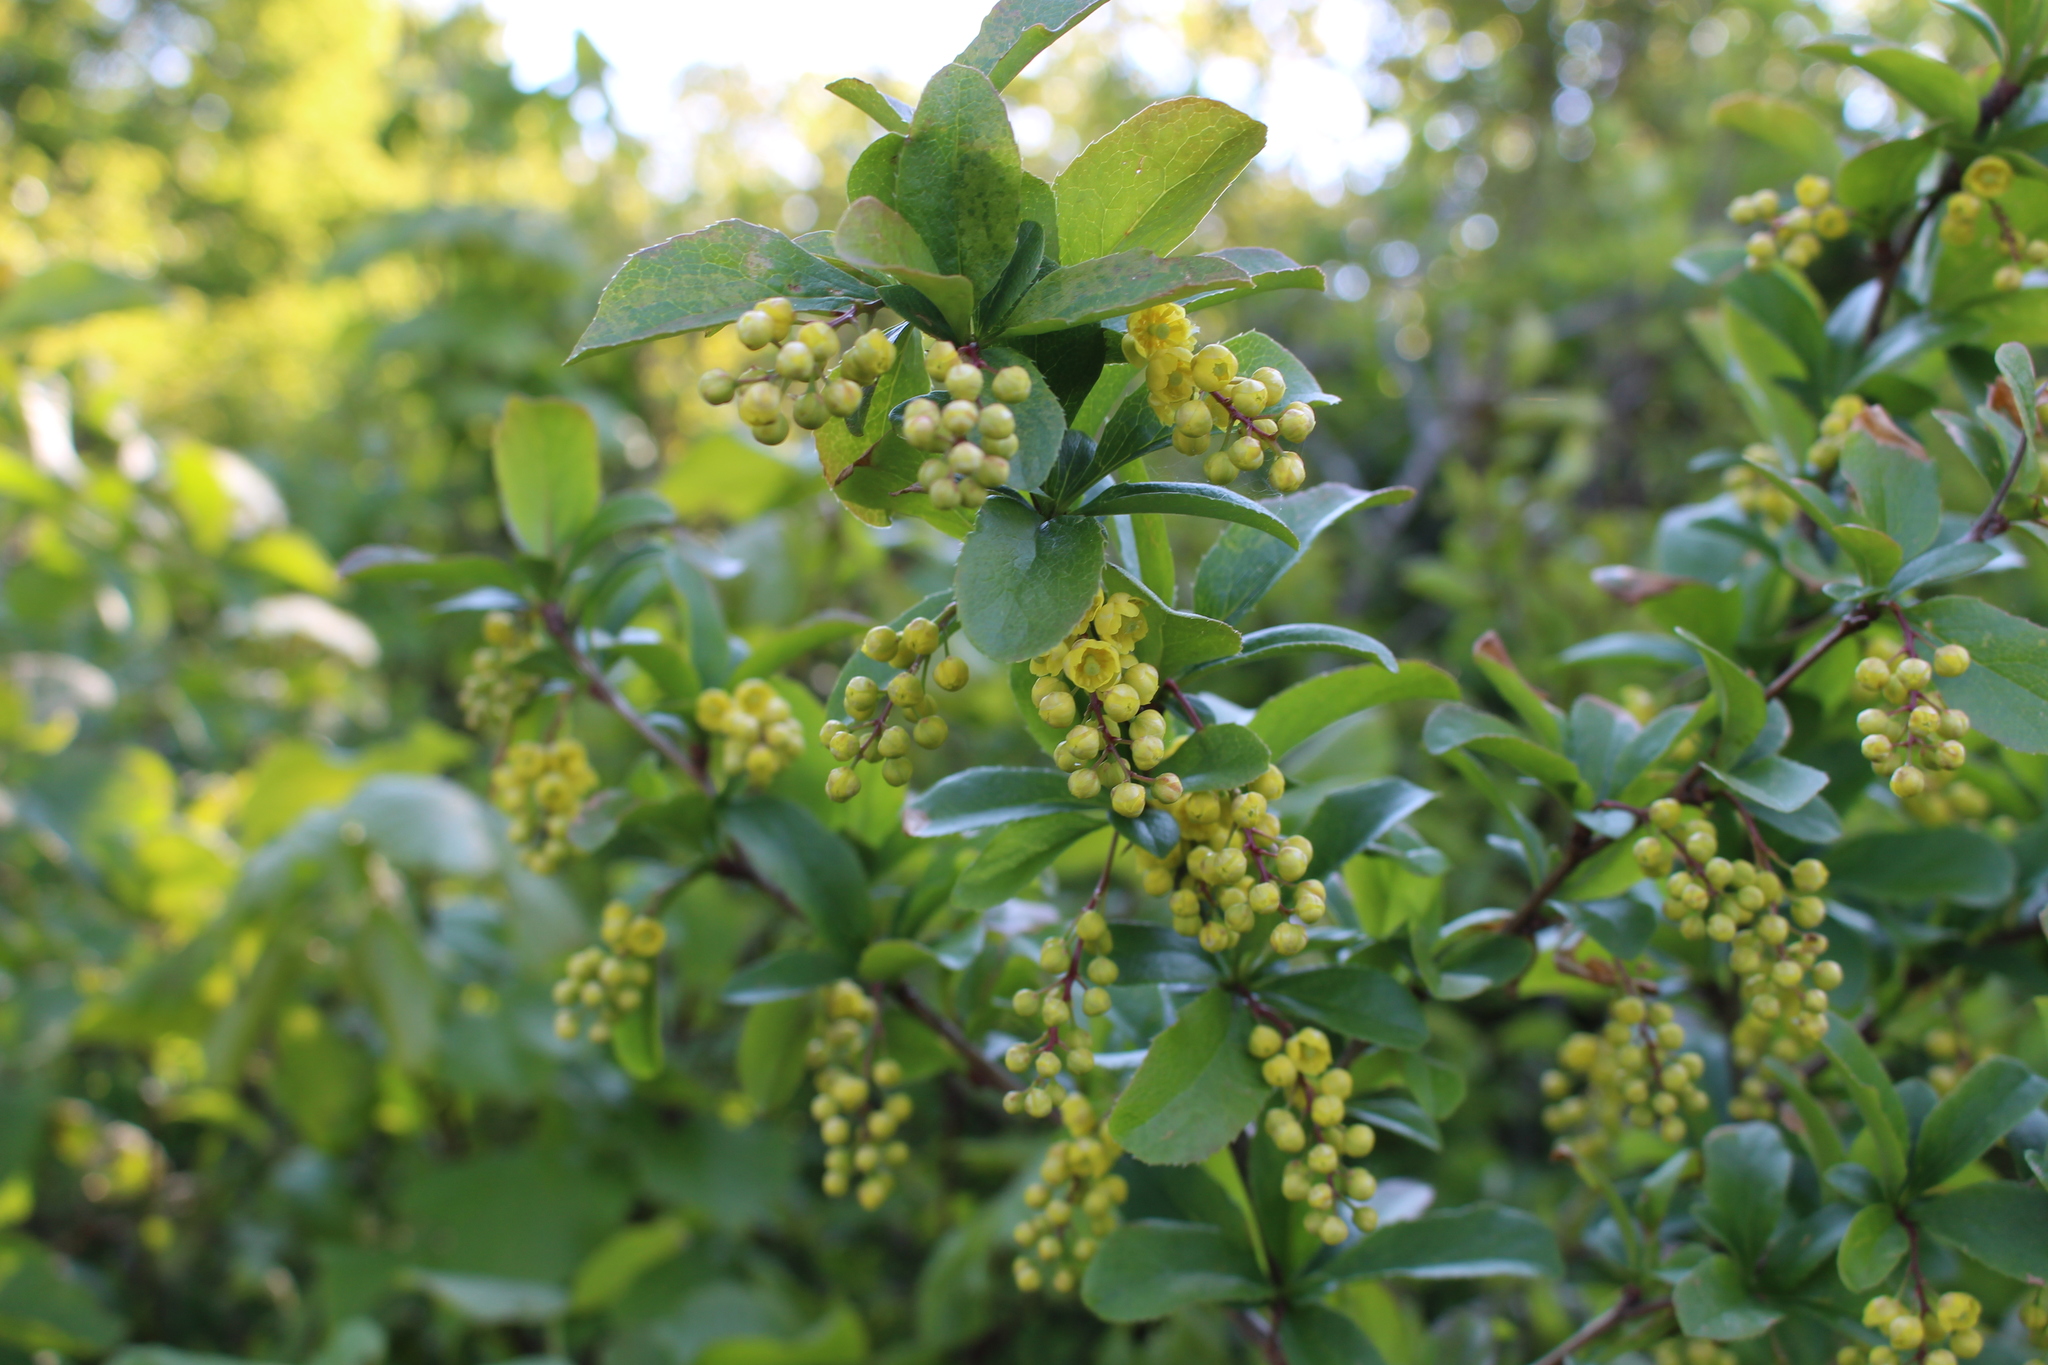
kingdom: Plantae
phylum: Tracheophyta
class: Magnoliopsida
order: Ranunculales
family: Berberidaceae
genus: Berberis
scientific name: Berberis vulgaris
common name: Barberry
